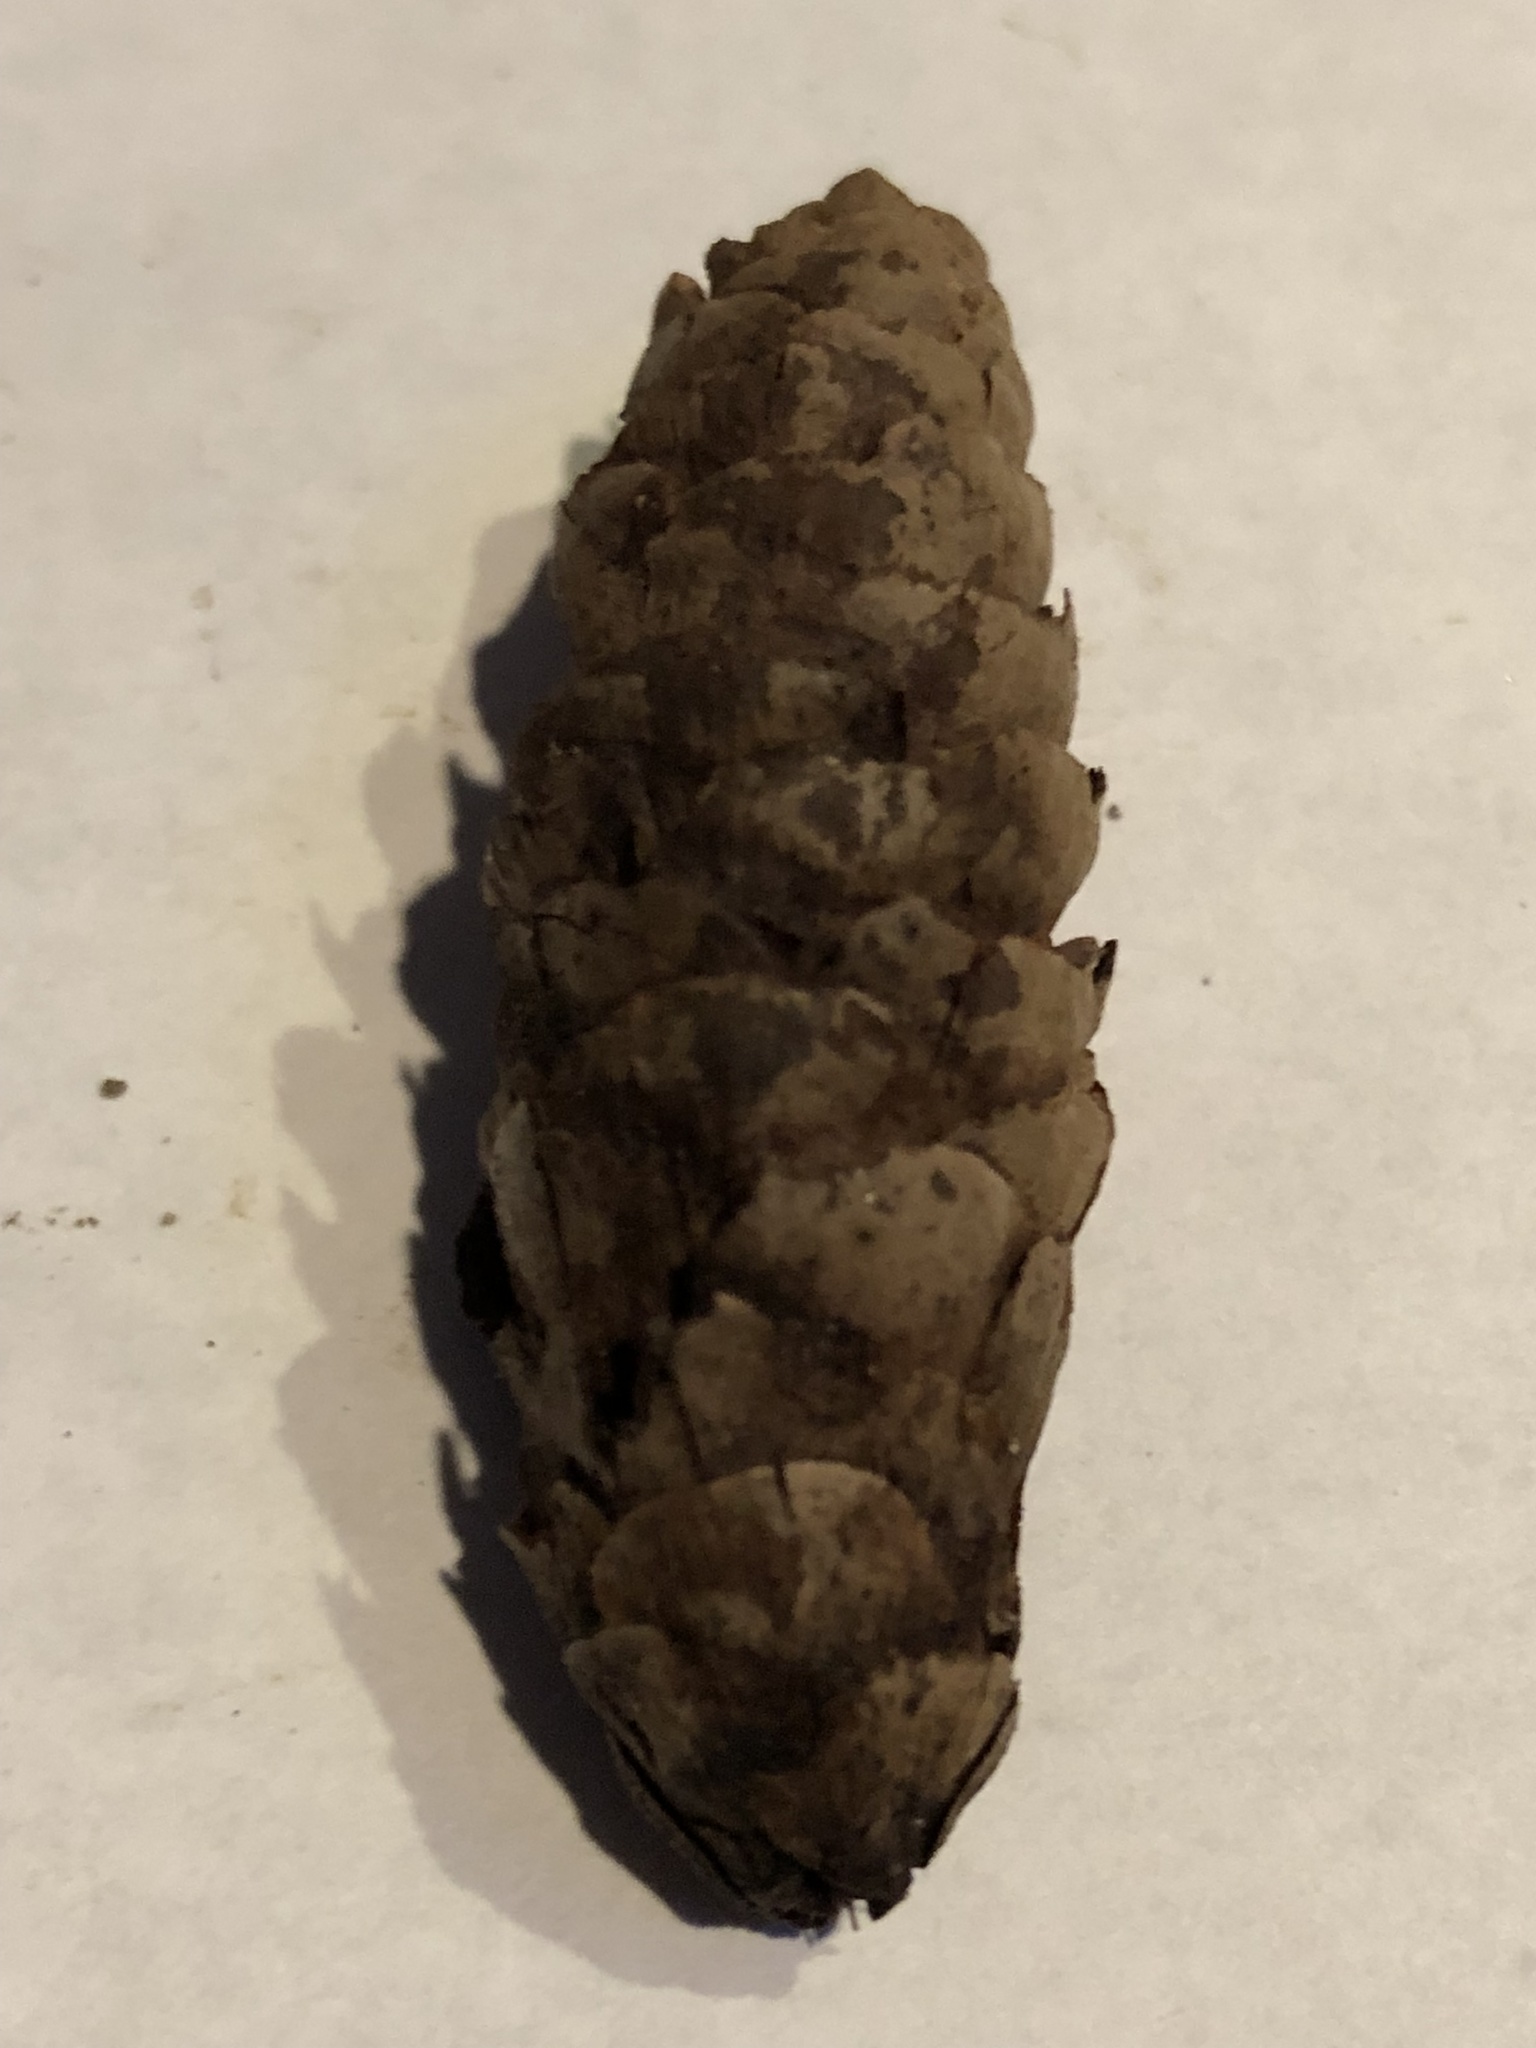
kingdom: Plantae
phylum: Tracheophyta
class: Pinopsida
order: Pinales
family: Pinaceae
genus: Picea
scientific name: Picea glauca
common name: White spruce
